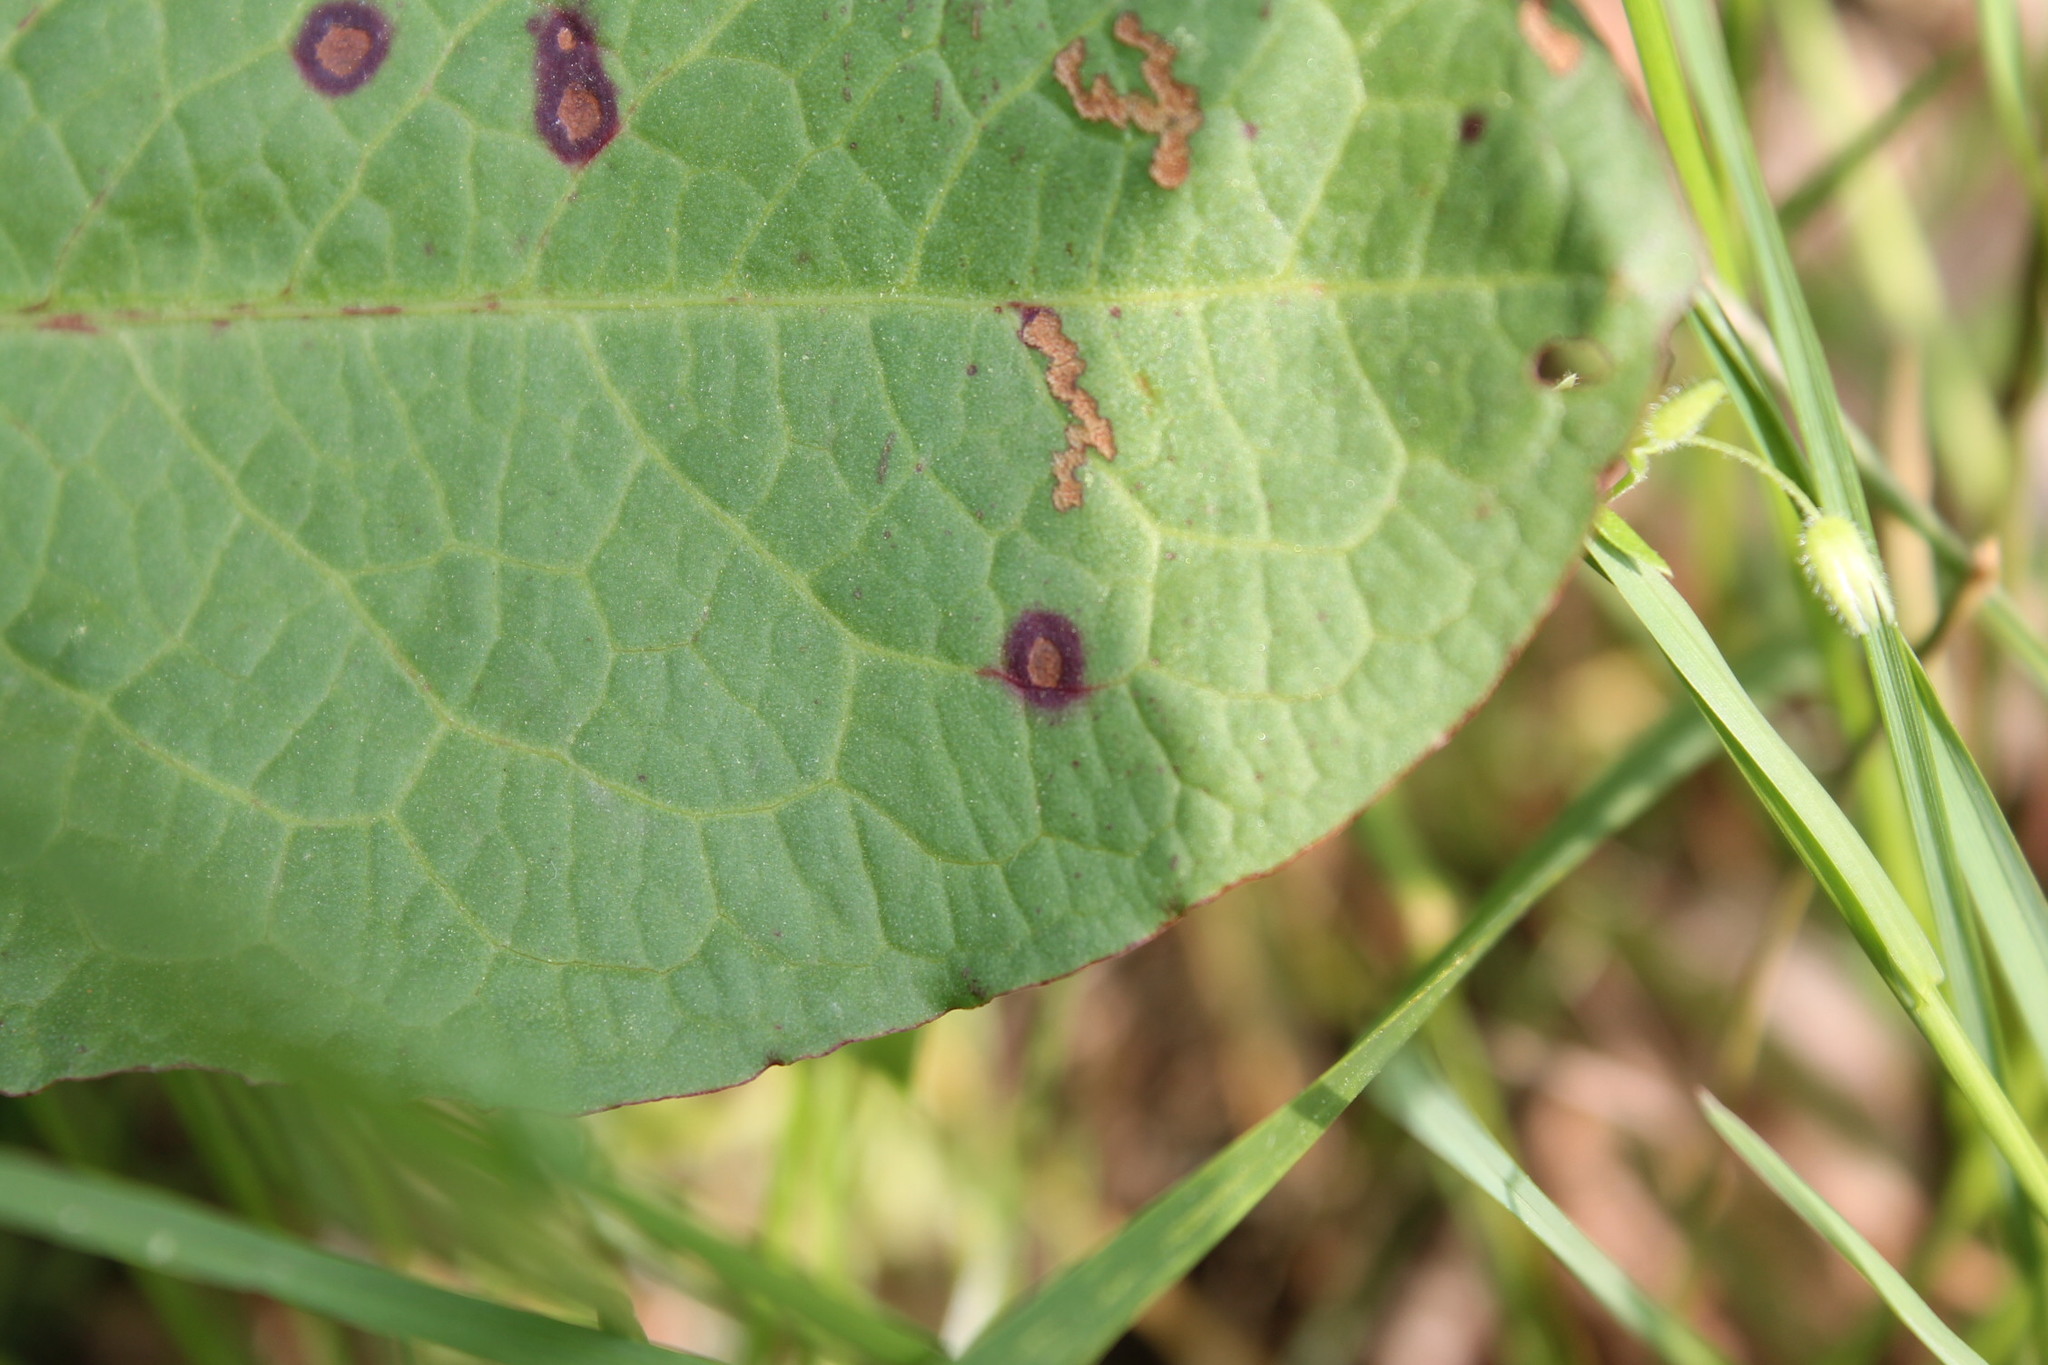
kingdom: Fungi
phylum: Ascomycota
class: Dothideomycetes
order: Mycosphaerellales
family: Mycosphaerellaceae
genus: Ramularia
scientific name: Ramularia rubella
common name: Red dock spot
